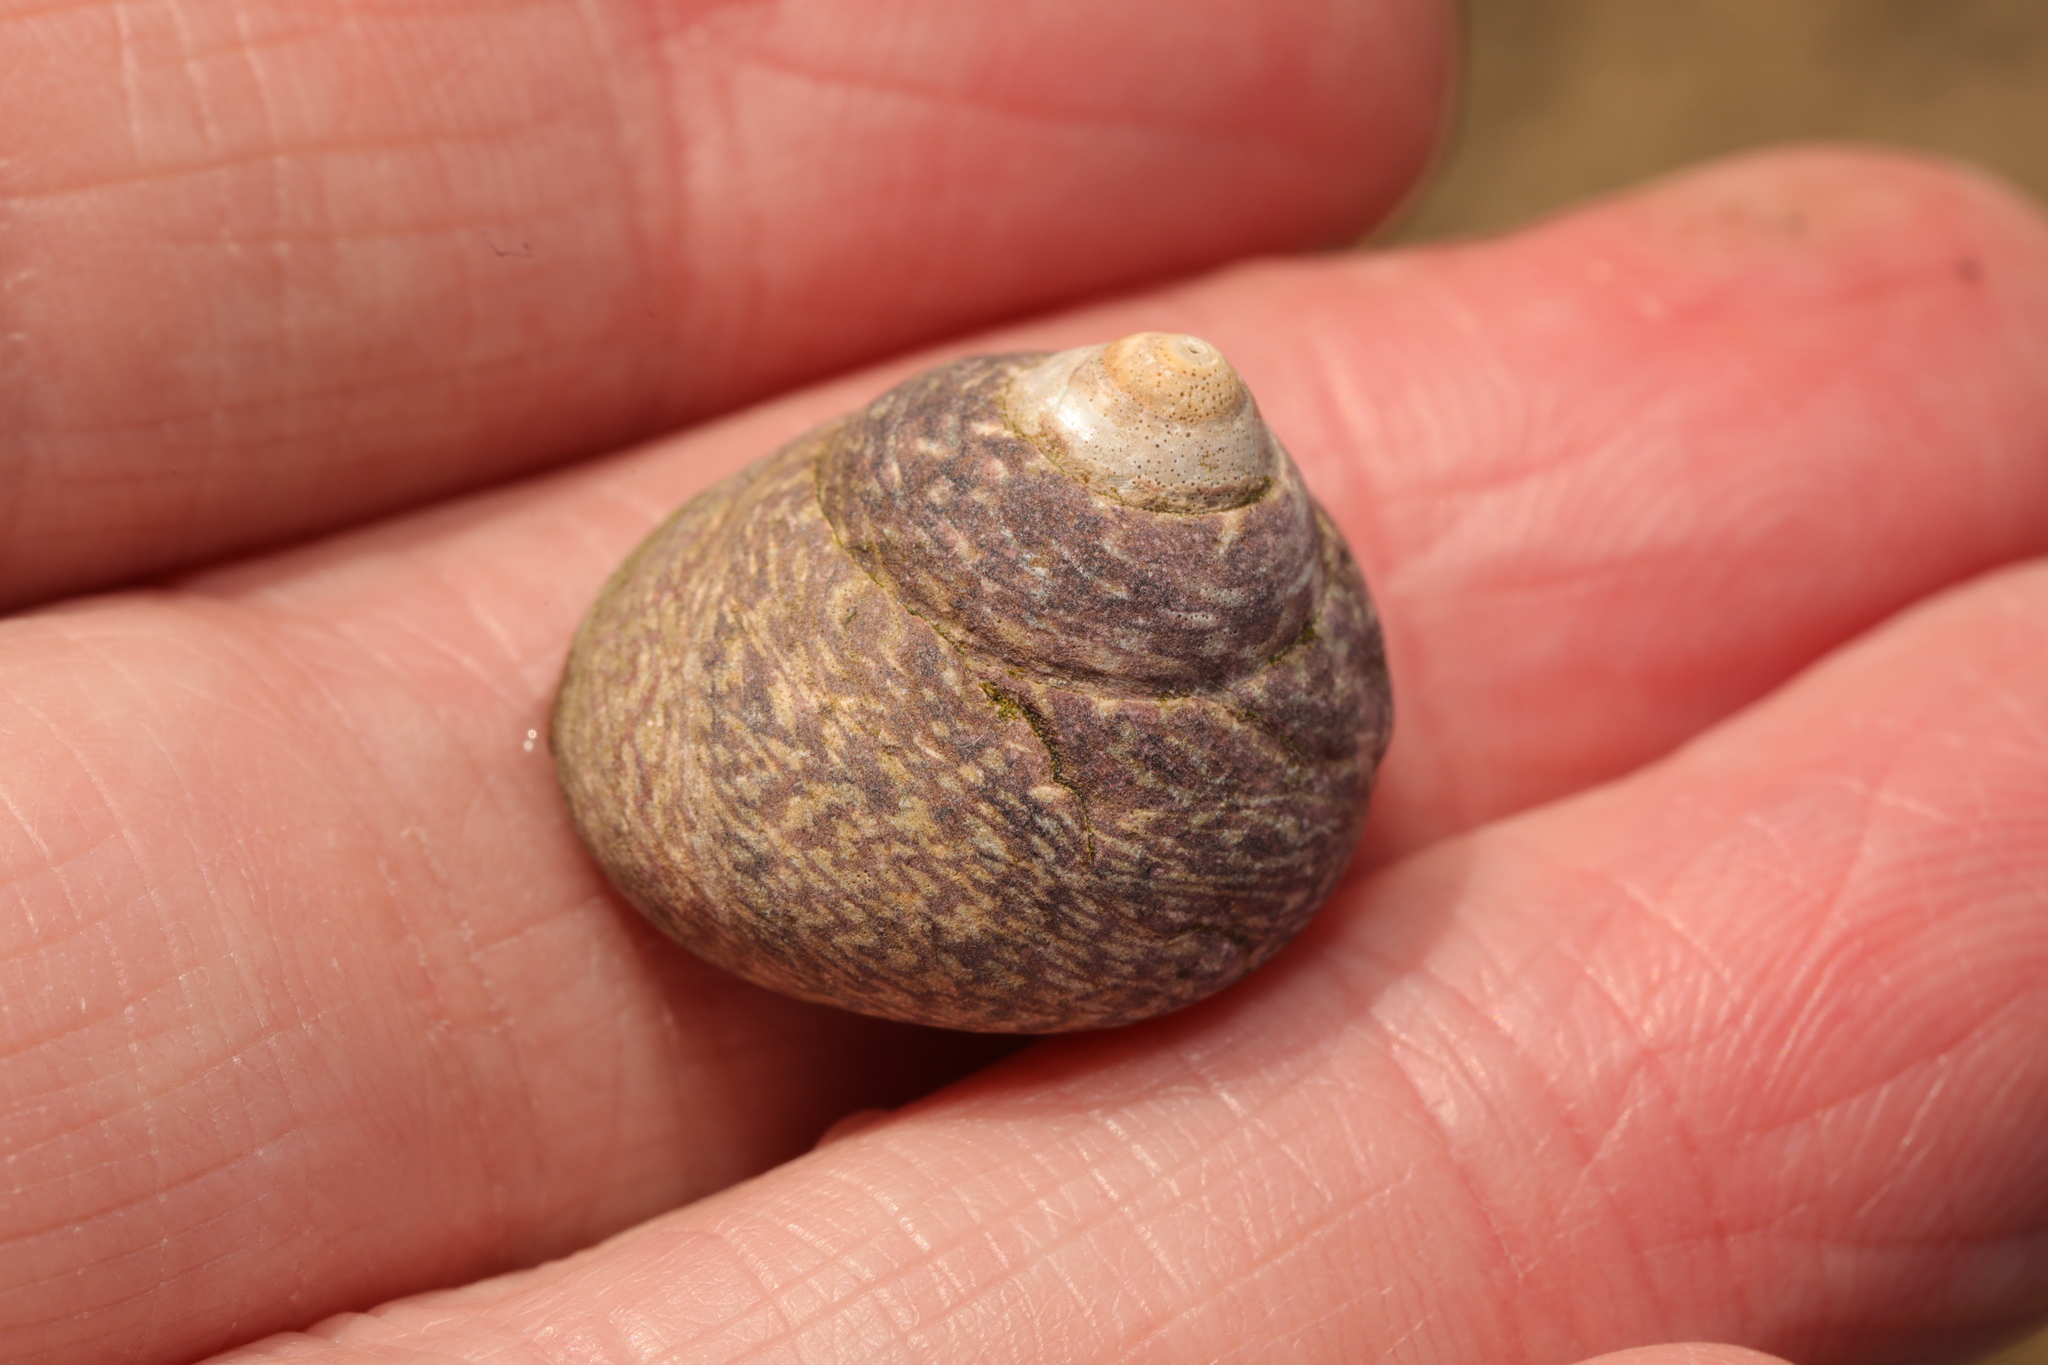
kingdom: Animalia
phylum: Mollusca
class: Gastropoda
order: Trochida
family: Trochidae
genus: Phorcus
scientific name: Phorcus lineatus
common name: Toothed top shell
